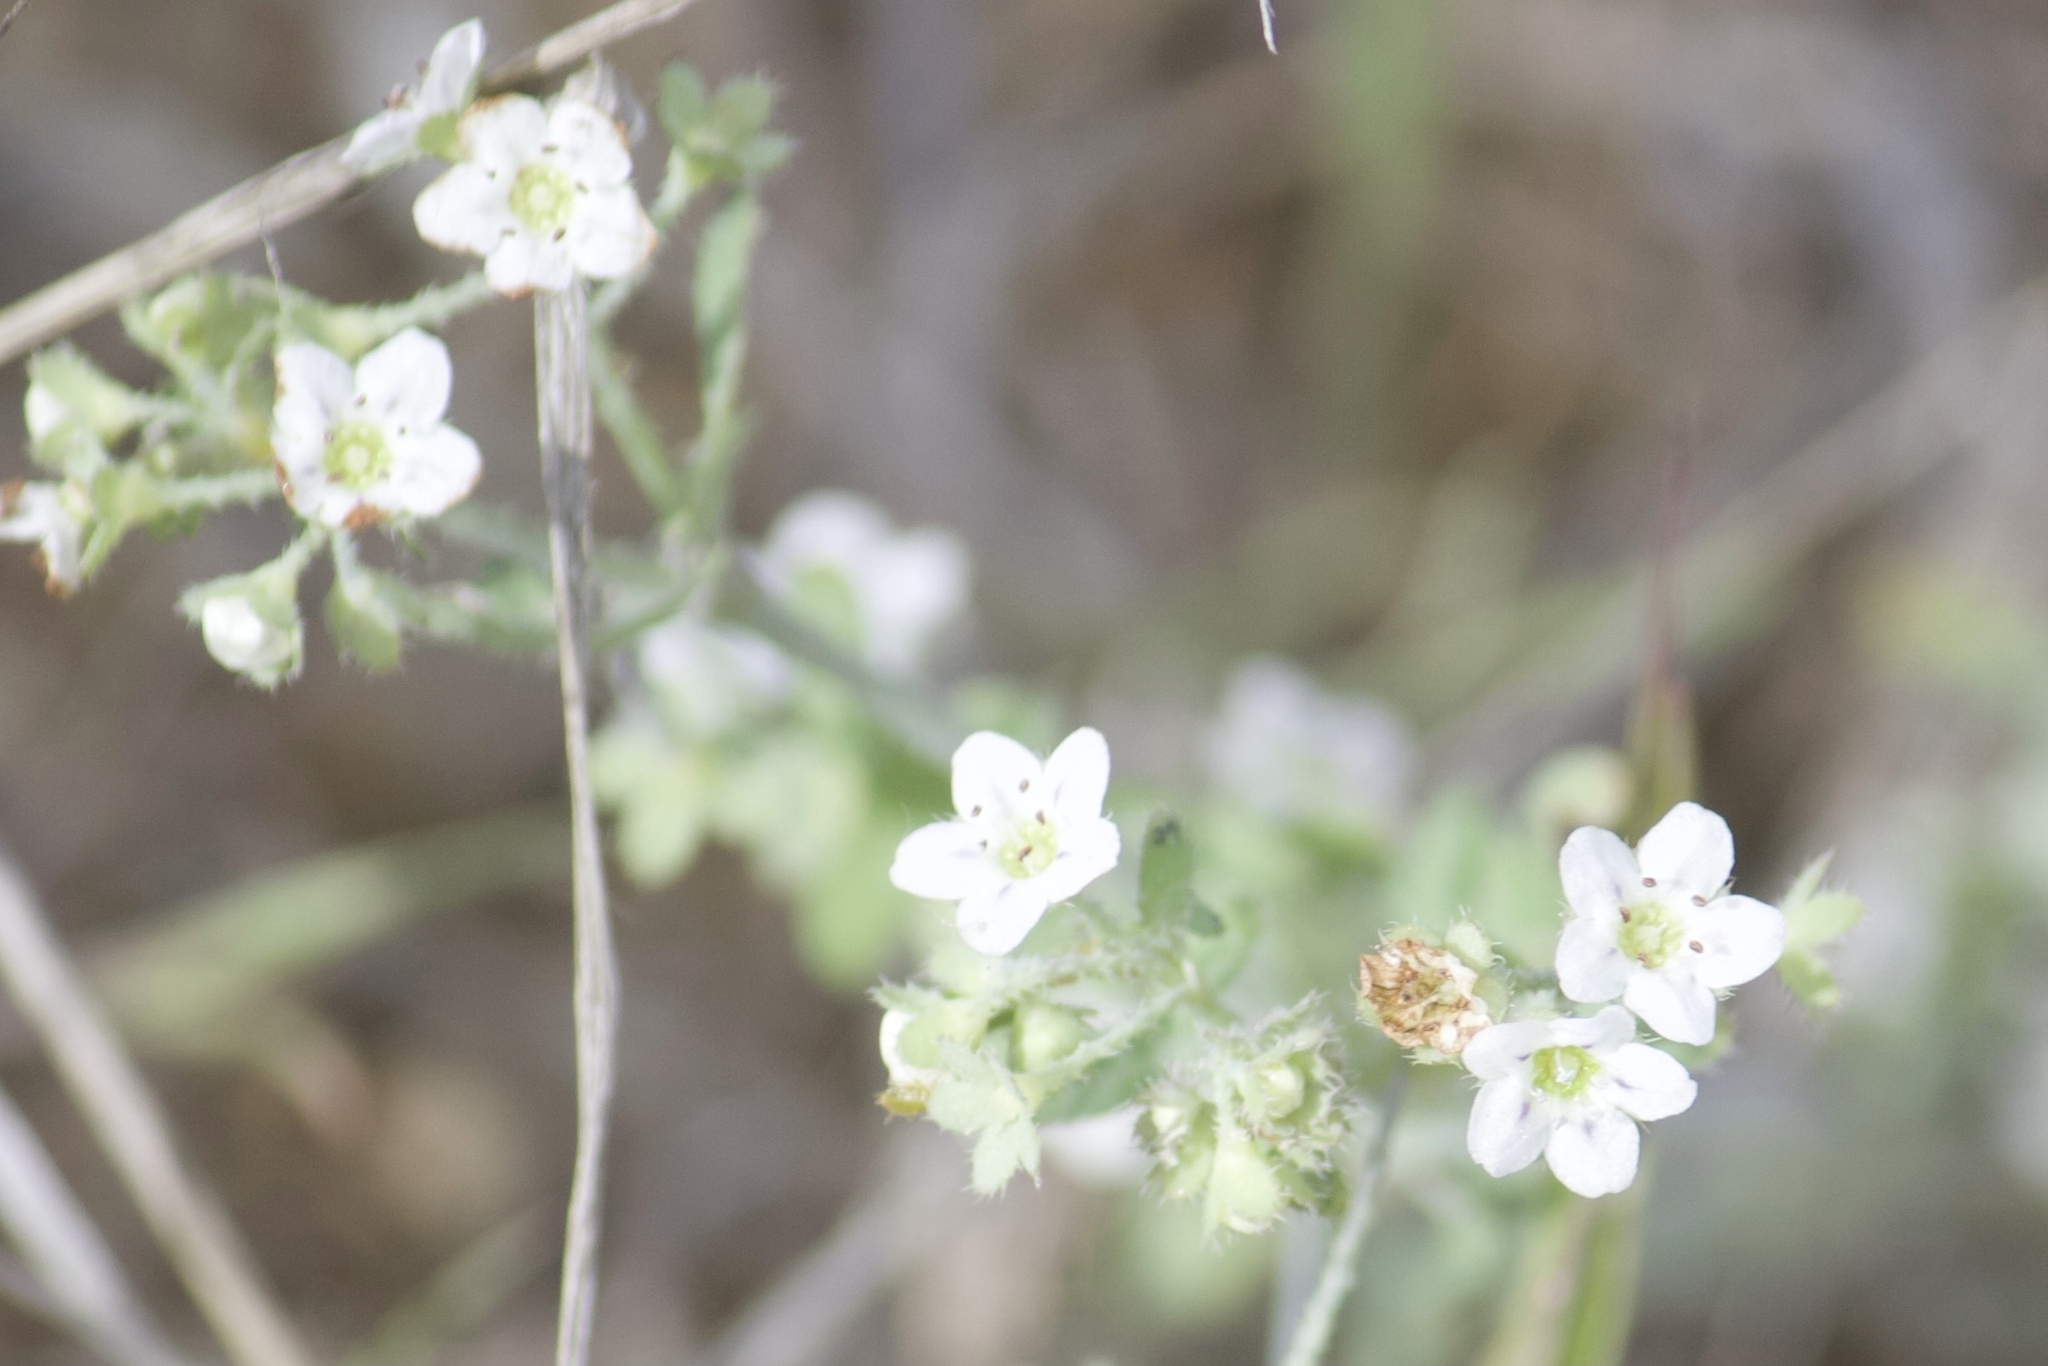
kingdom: Plantae
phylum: Tracheophyta
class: Magnoliopsida
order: Boraginales
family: Hydrophyllaceae
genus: Pholistoma
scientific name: Pholistoma membranaceum
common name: White fiesta-flower
